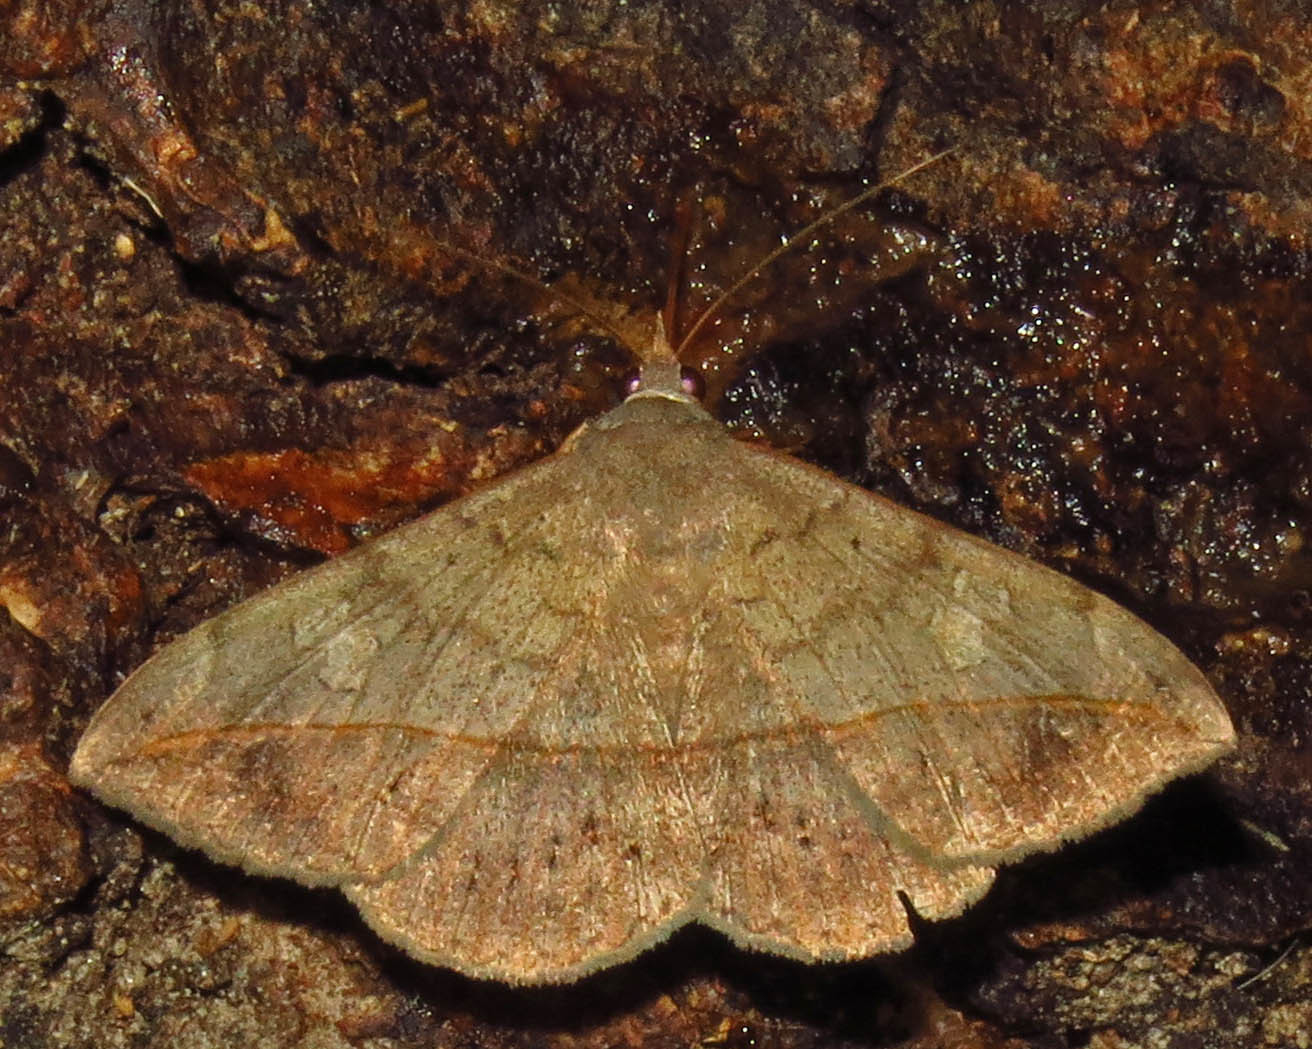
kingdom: Animalia
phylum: Arthropoda
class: Insecta
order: Lepidoptera
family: Erebidae
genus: Anticarsia
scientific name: Anticarsia gemmatalis
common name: Cutworm moth
